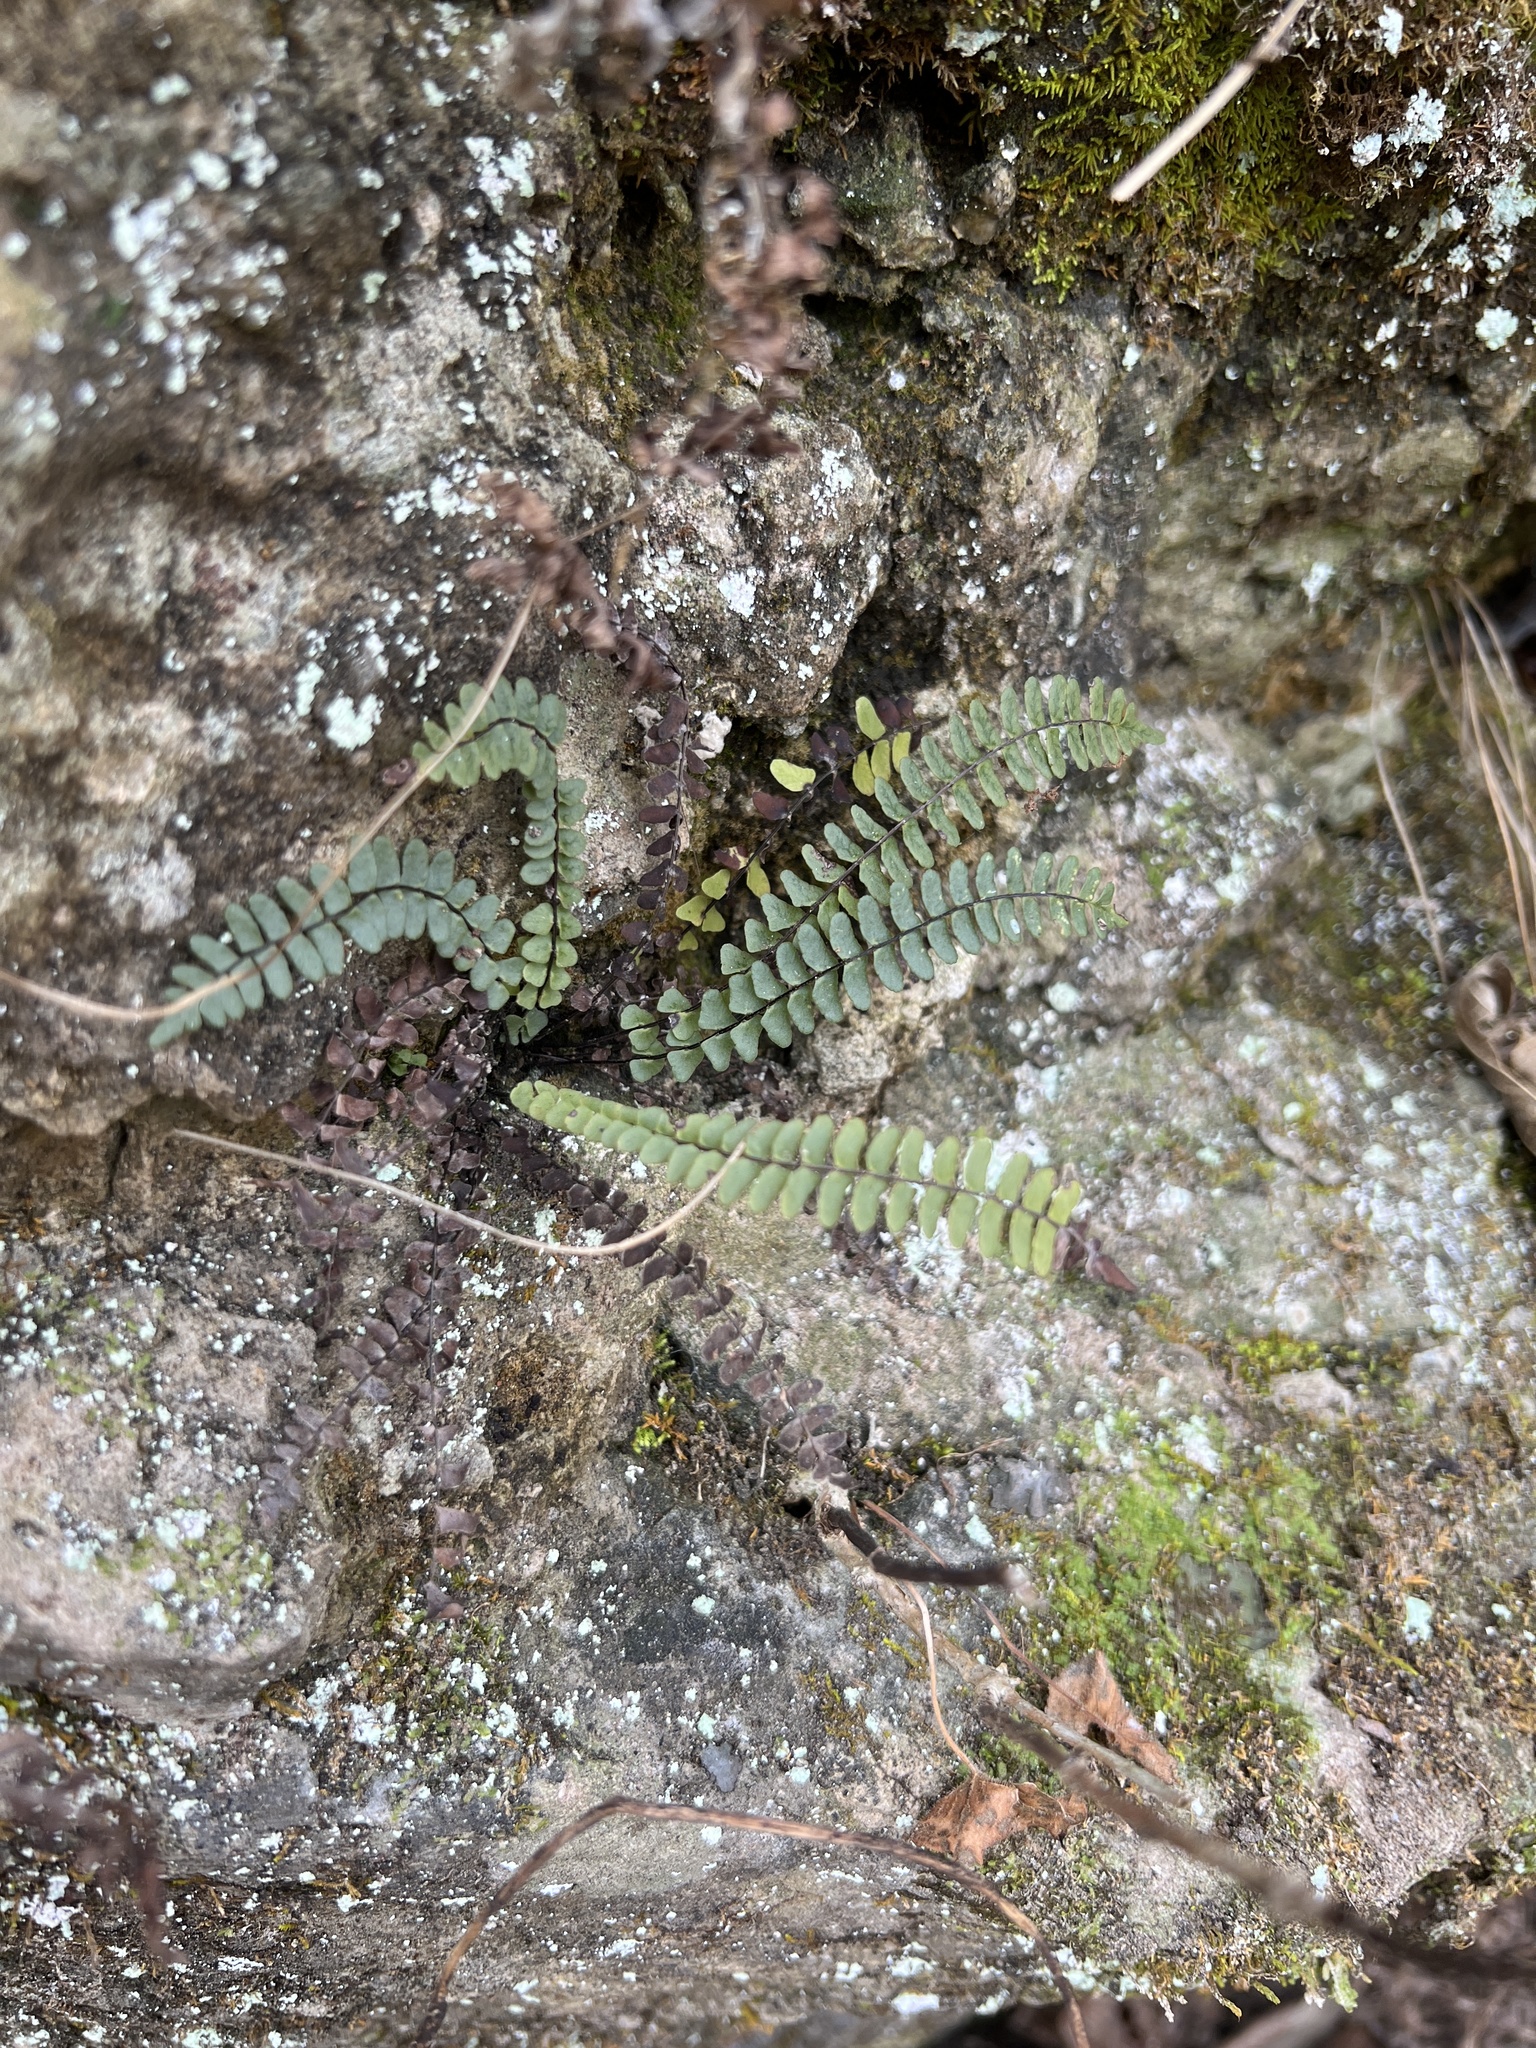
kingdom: Plantae
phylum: Tracheophyta
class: Polypodiopsida
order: Polypodiales
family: Aspleniaceae
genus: Asplenium
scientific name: Asplenium resiliens
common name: Blackstem spleenwort
